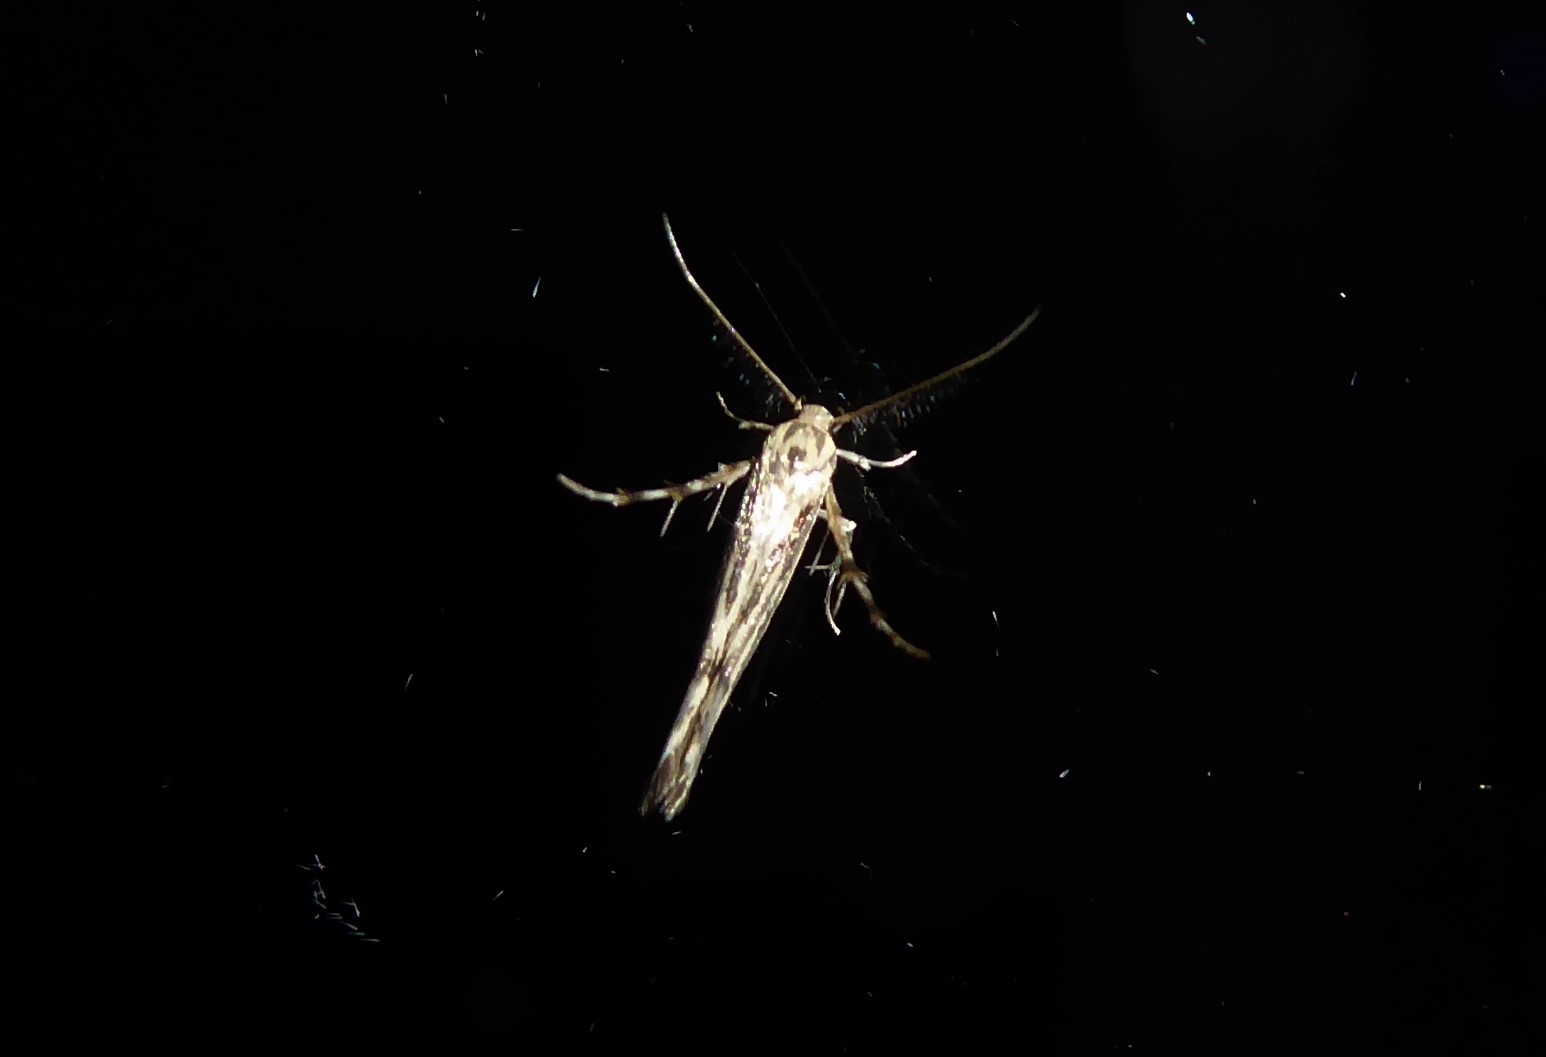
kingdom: Animalia
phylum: Arthropoda
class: Insecta
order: Lepidoptera
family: Stathmopodidae
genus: Stathmopoda
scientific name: Stathmopoda plumbiflua
